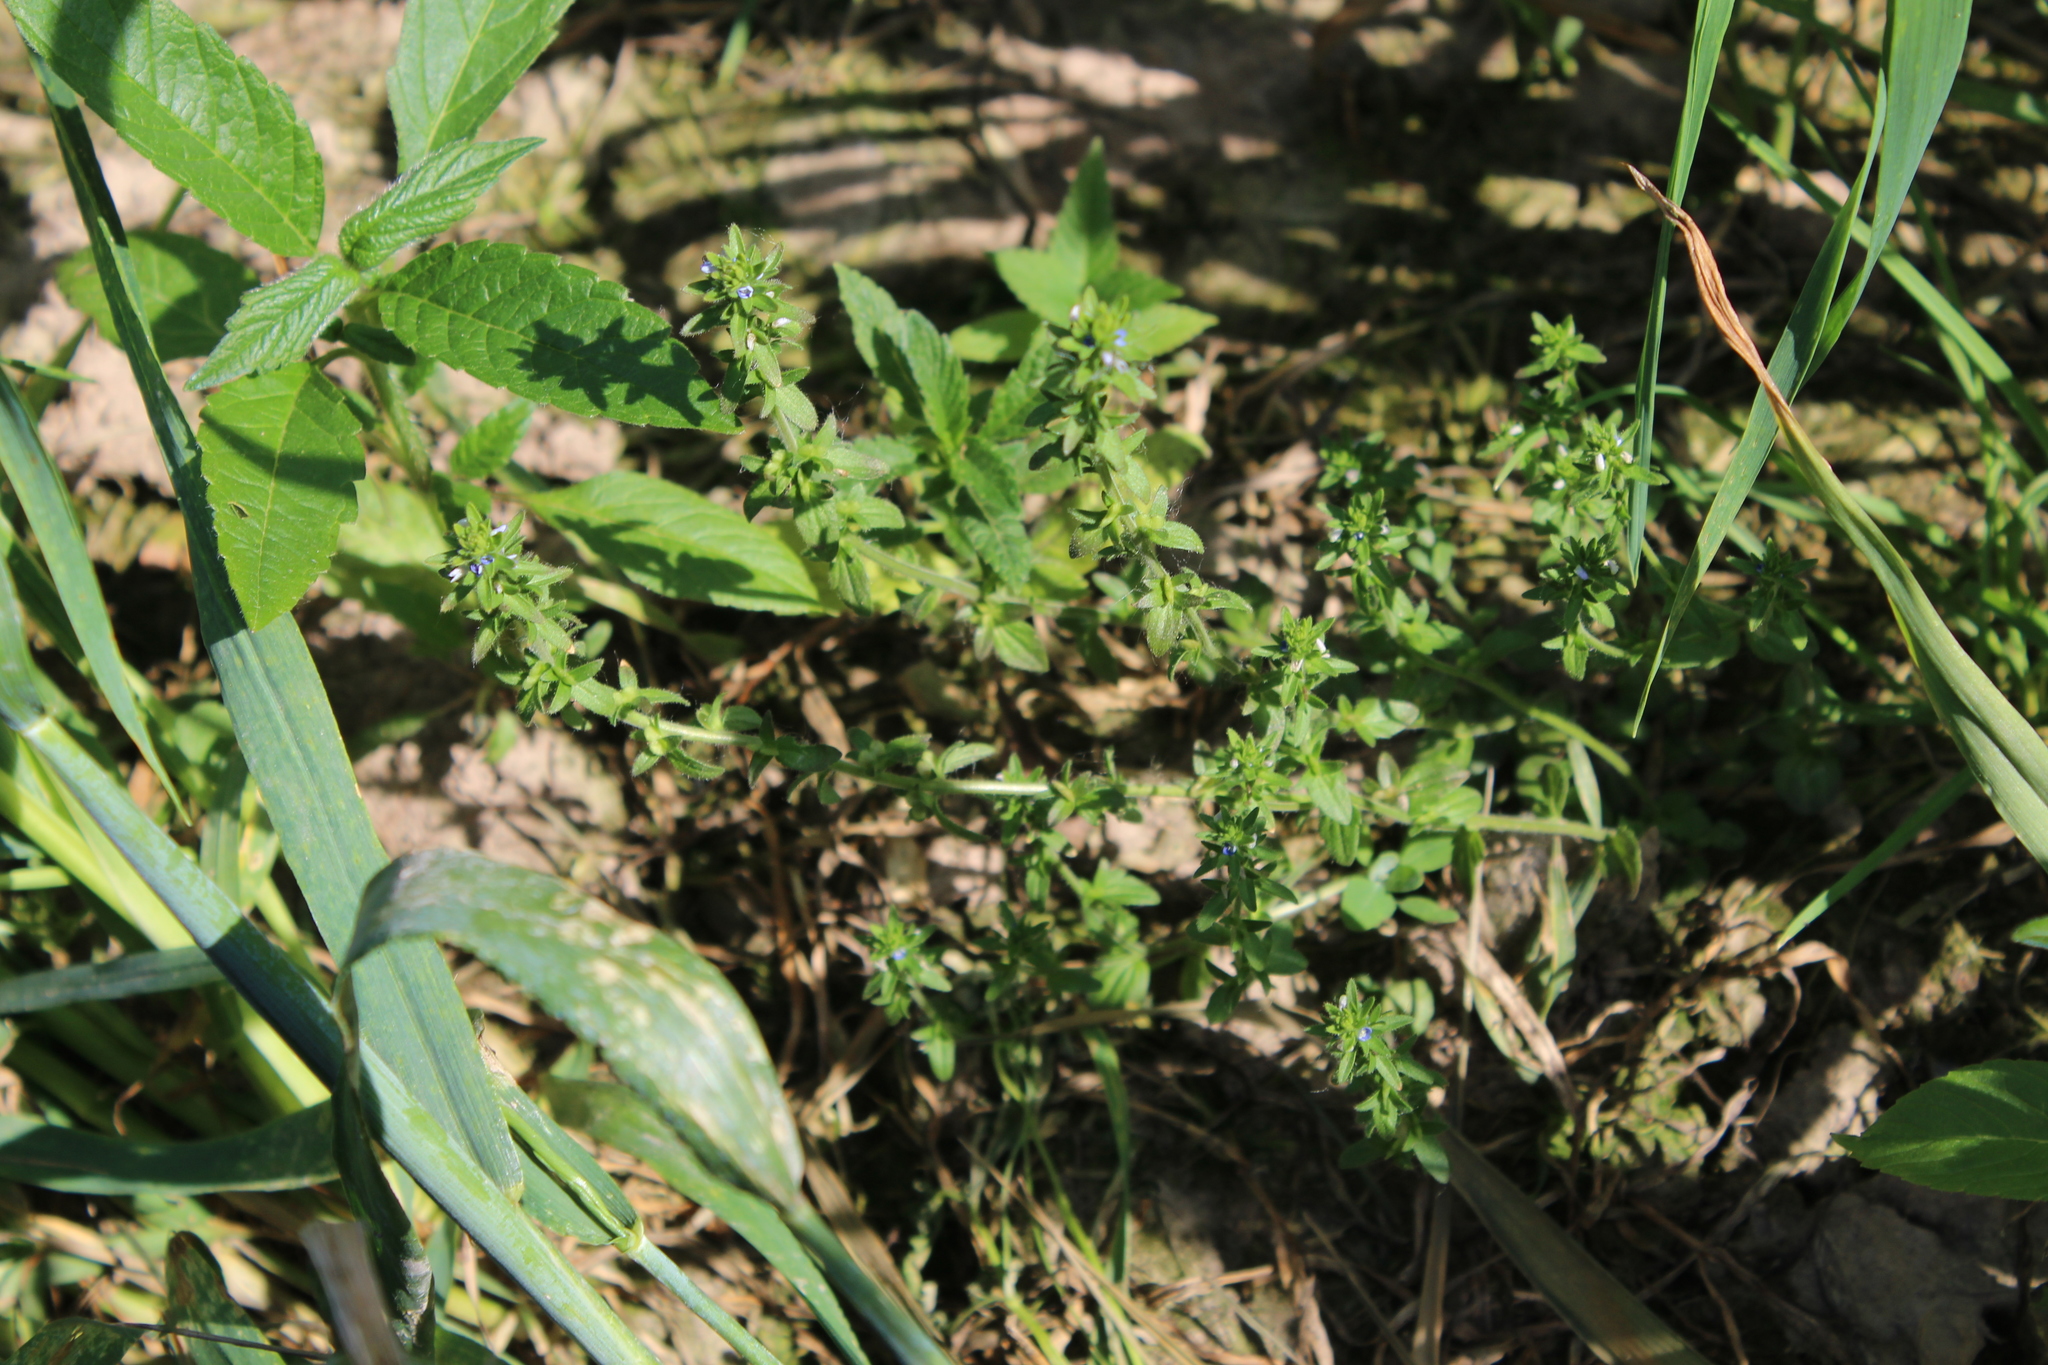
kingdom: Plantae
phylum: Tracheophyta
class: Magnoliopsida
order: Lamiales
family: Plantaginaceae
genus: Veronica
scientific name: Veronica arvensis
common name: Corn speedwell
